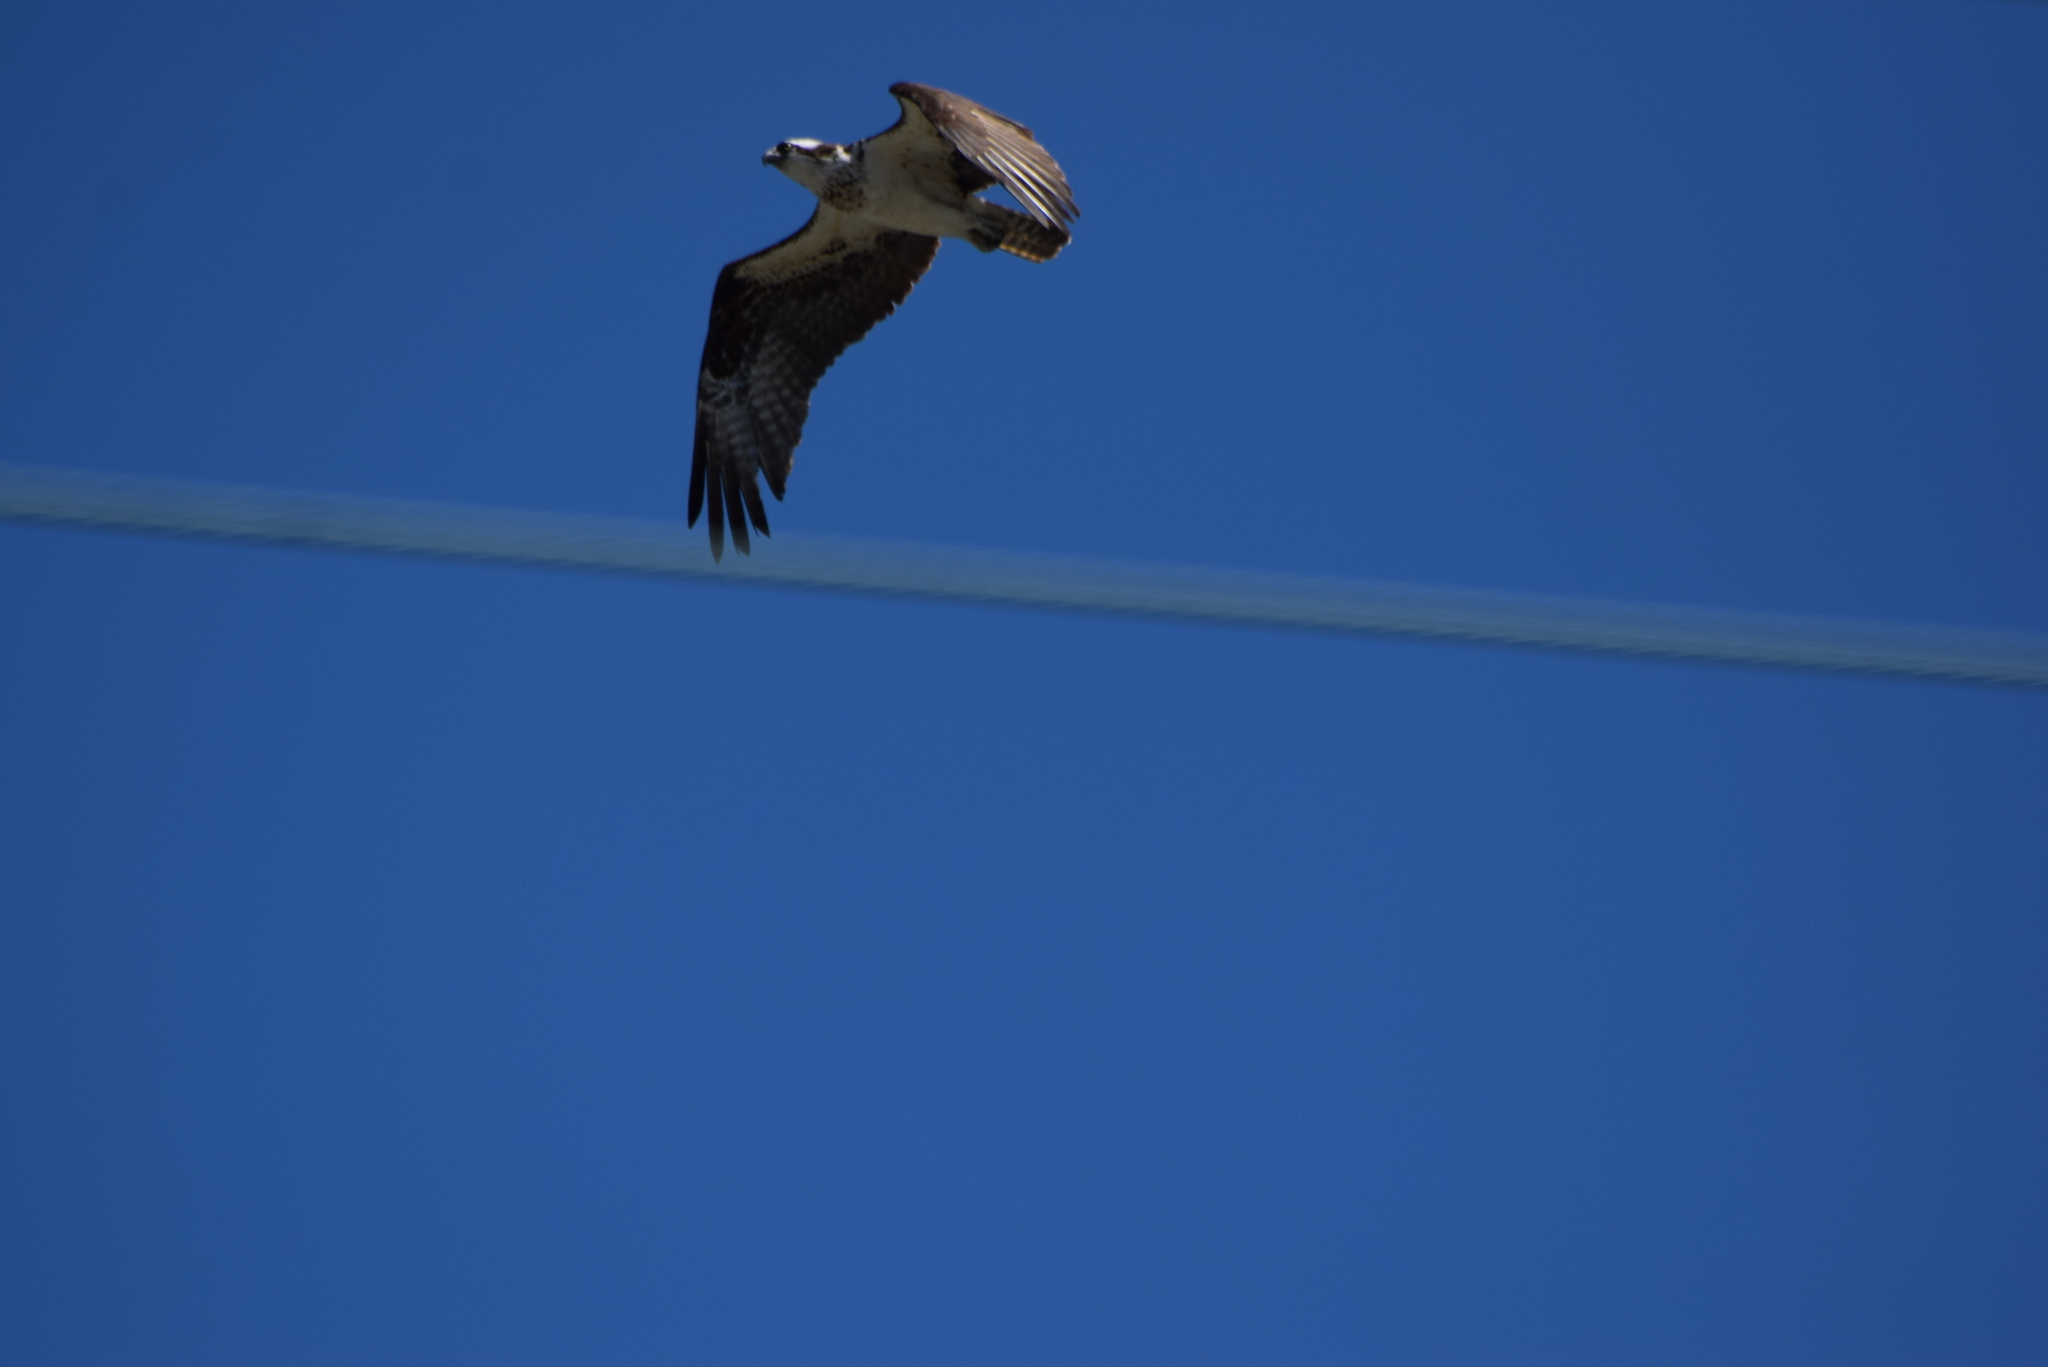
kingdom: Animalia
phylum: Chordata
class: Aves
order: Accipitriformes
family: Pandionidae
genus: Pandion
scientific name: Pandion haliaetus
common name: Osprey
